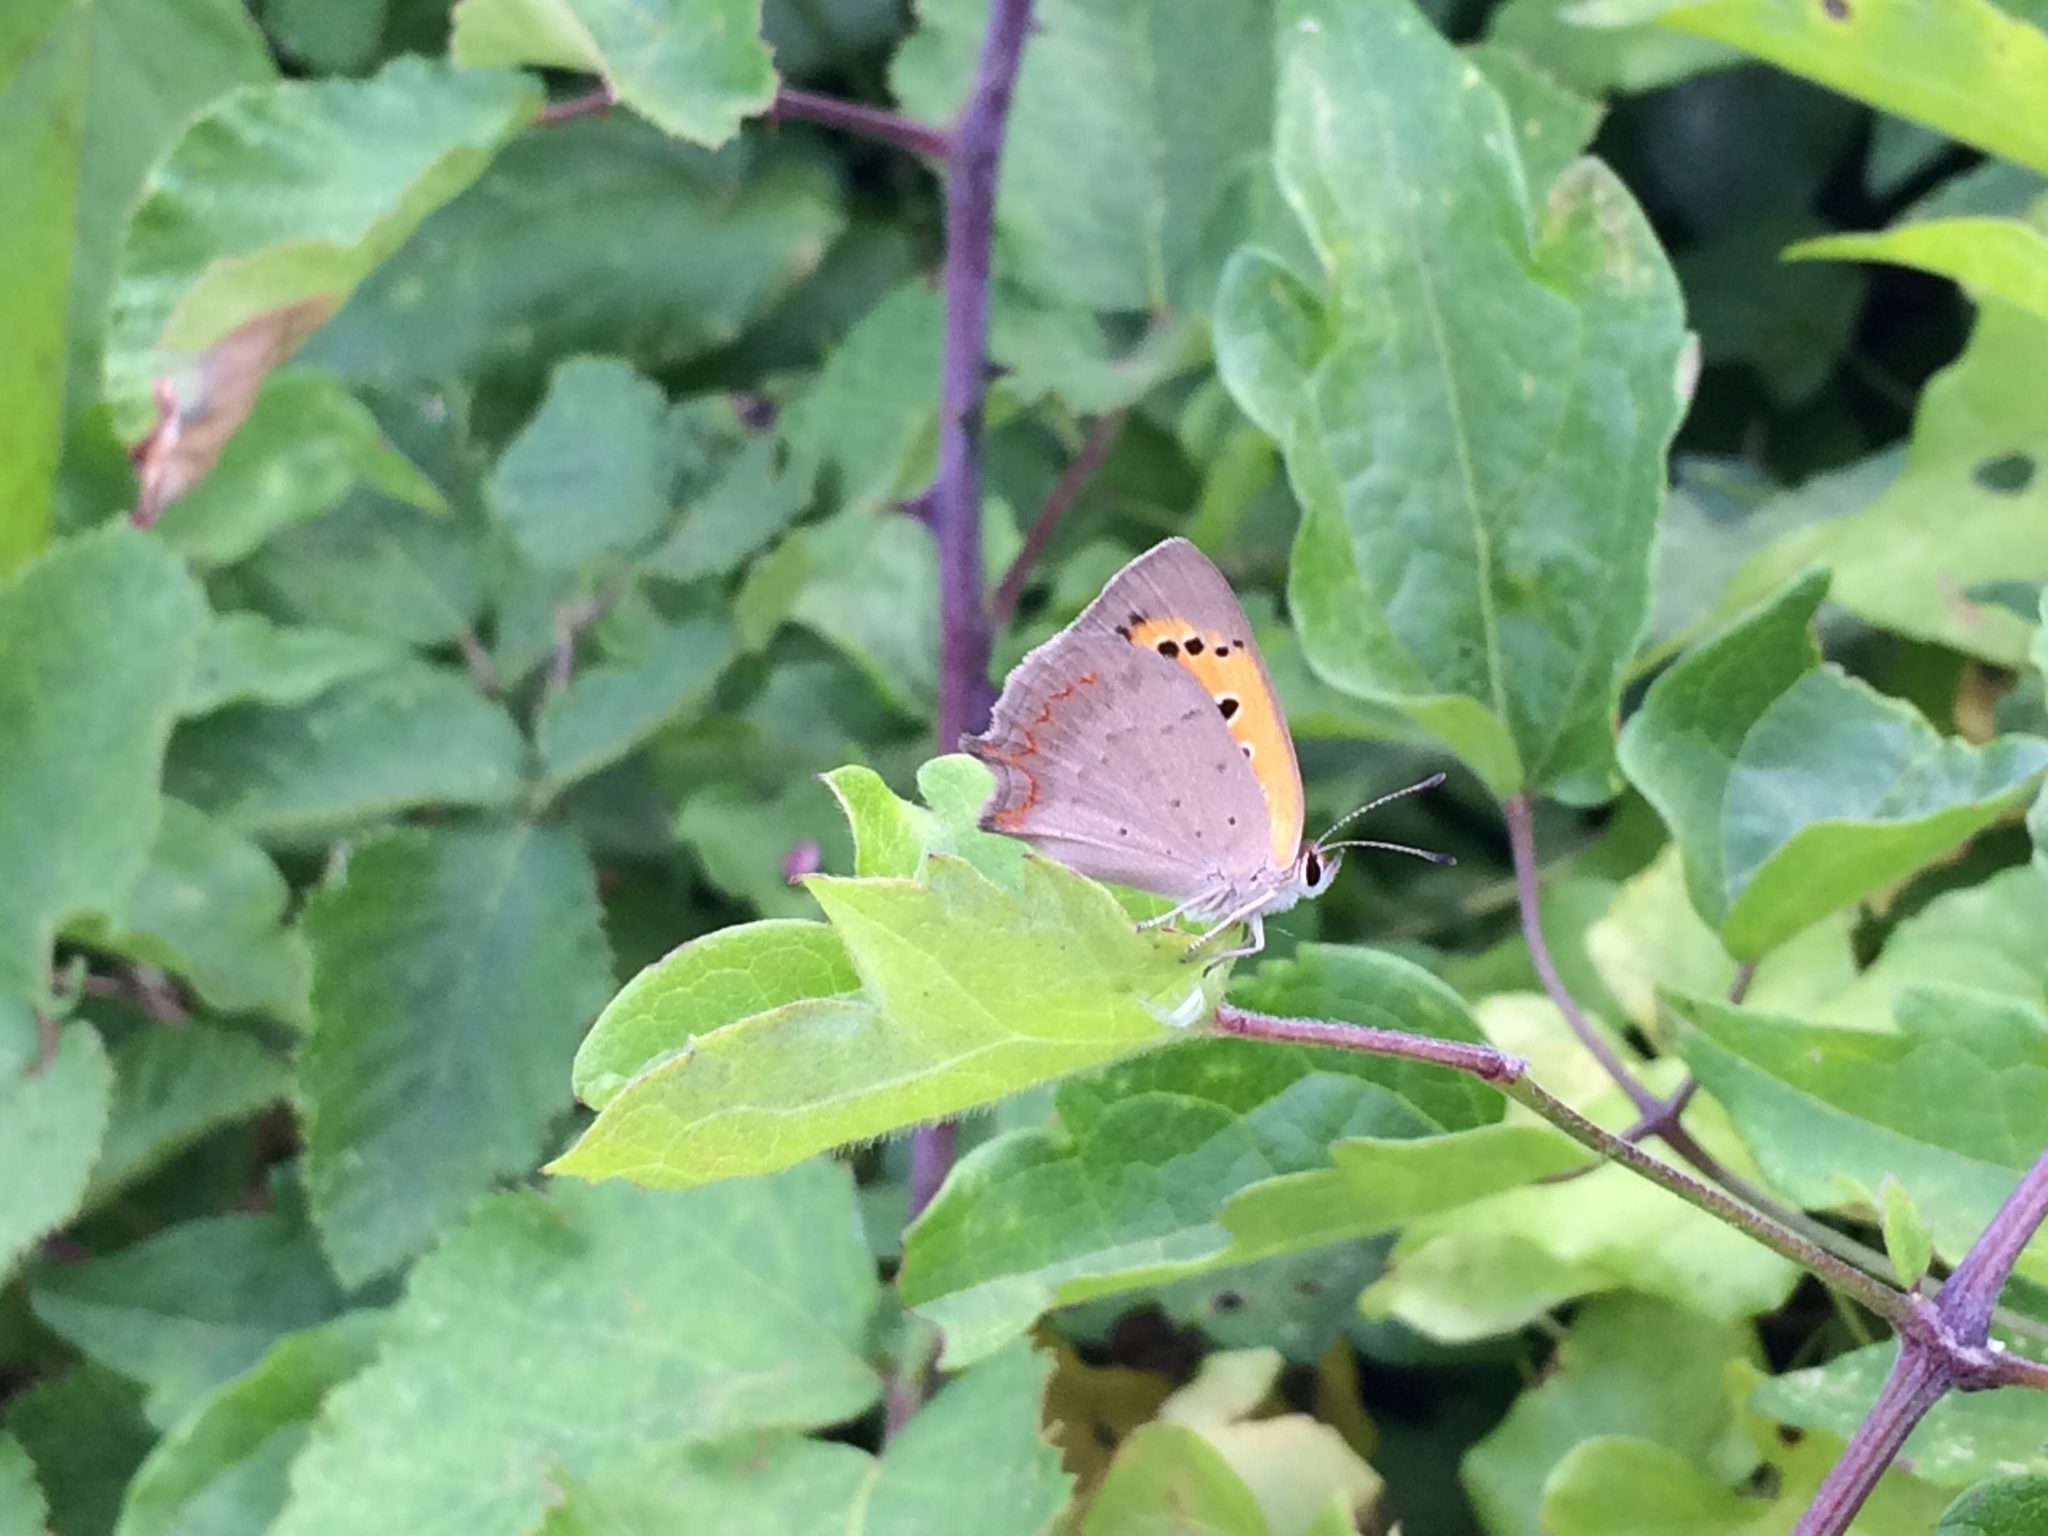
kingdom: Animalia
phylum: Arthropoda
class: Insecta
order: Lepidoptera
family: Lycaenidae
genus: Lycaena
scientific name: Lycaena phlaeas
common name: Small copper
